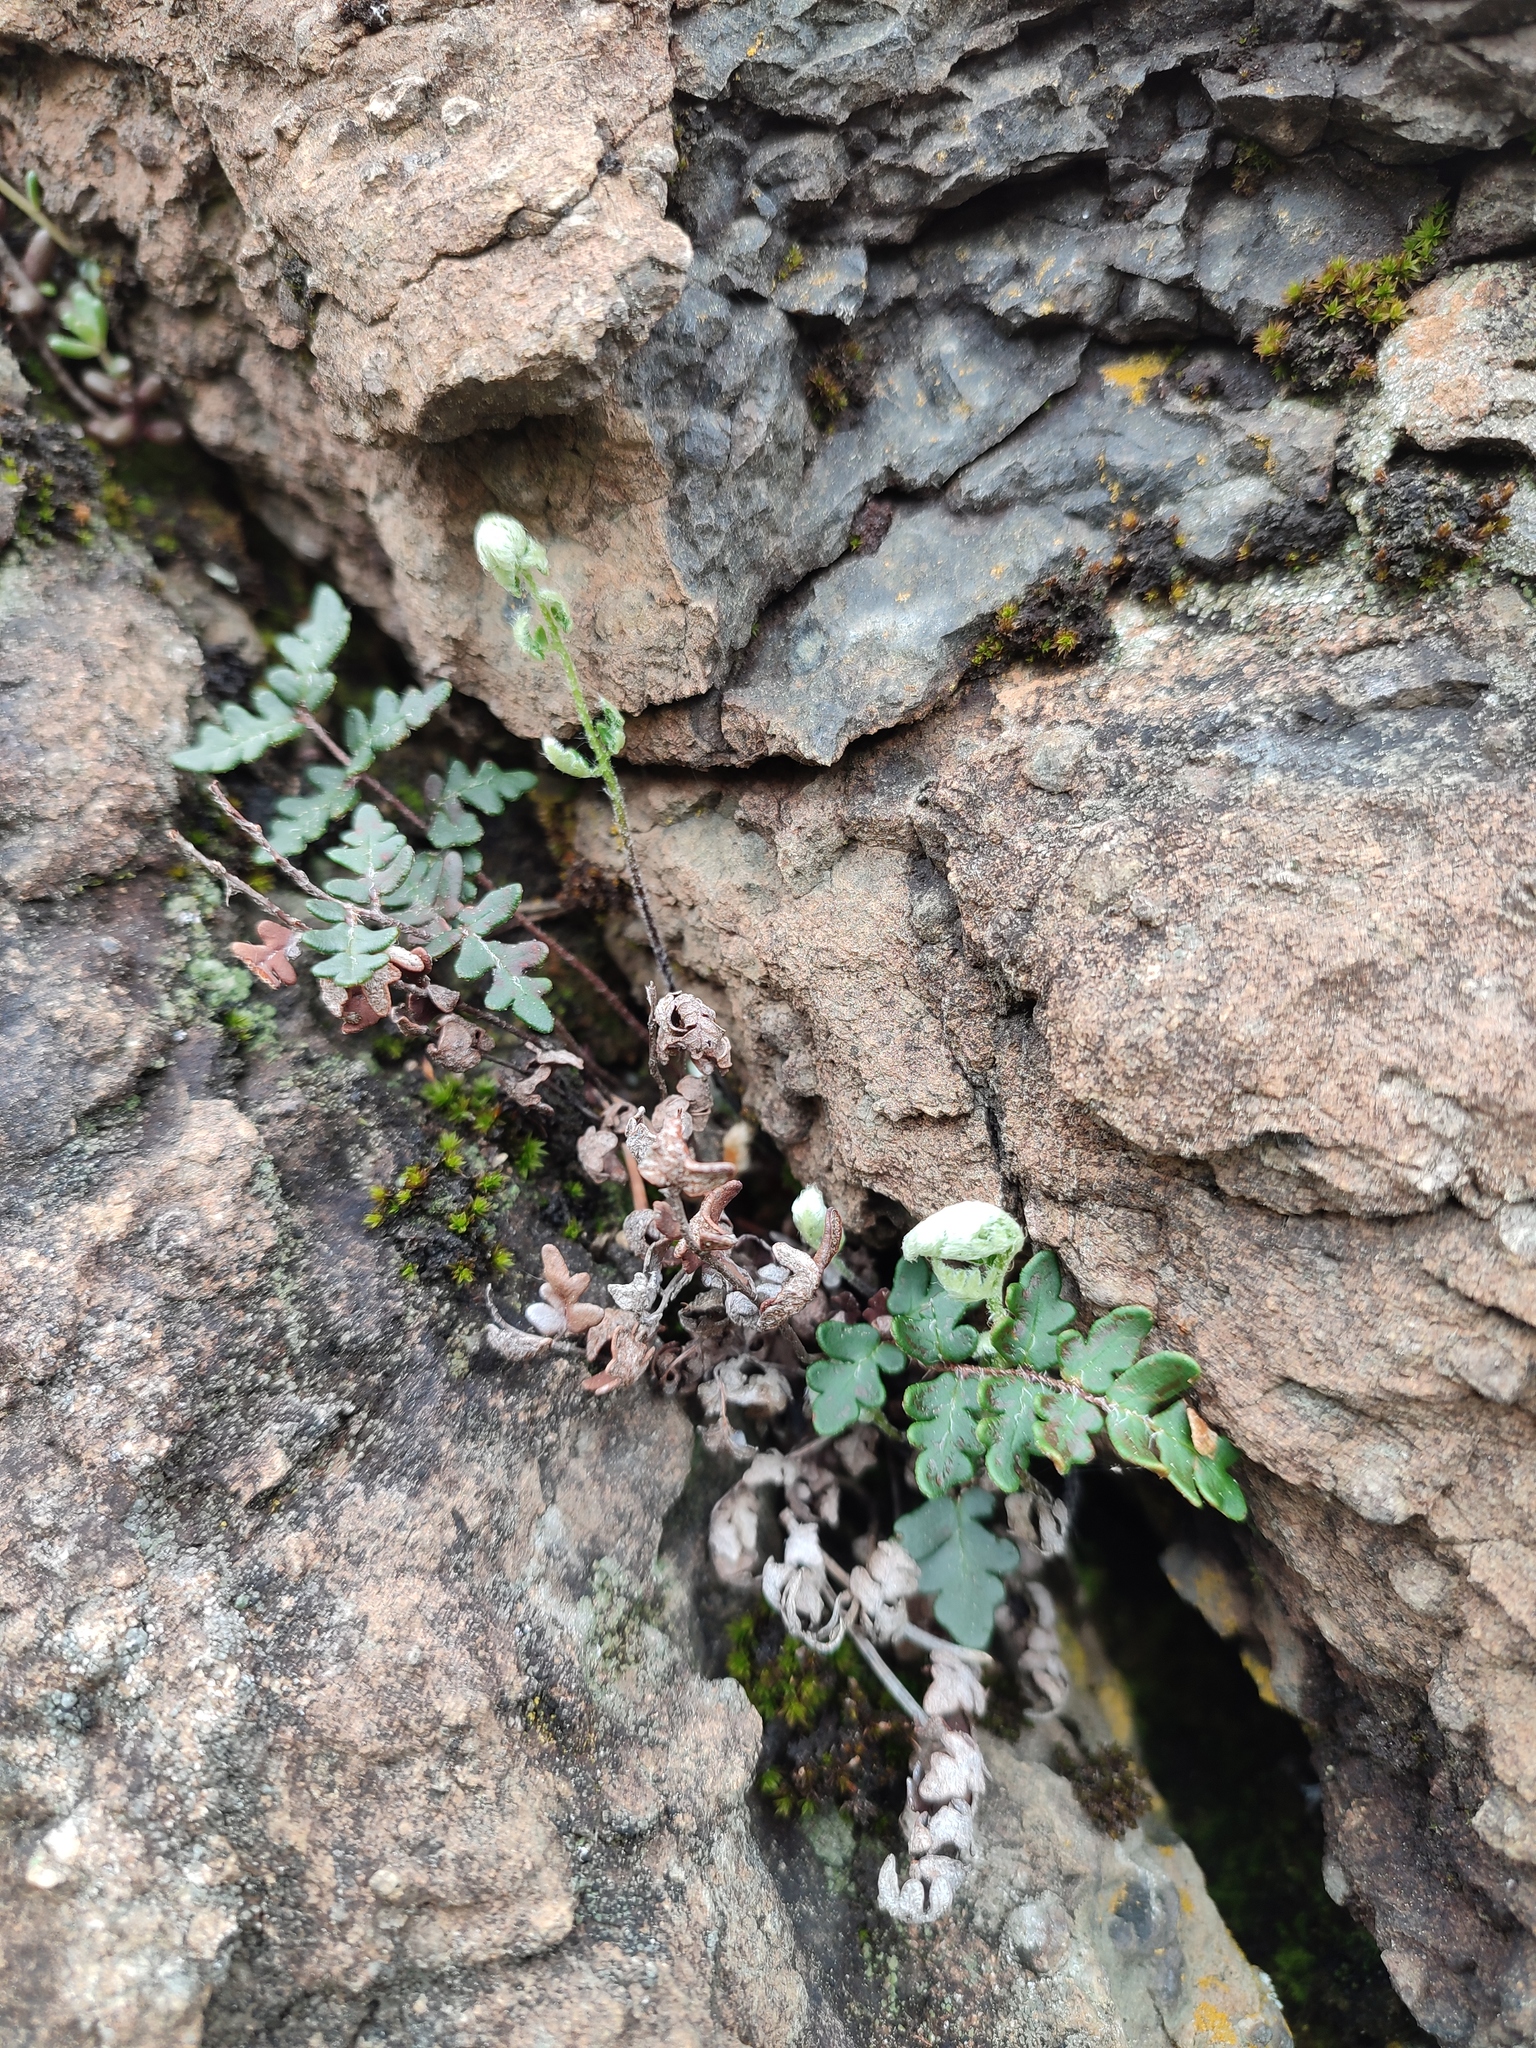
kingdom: Plantae
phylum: Tracheophyta
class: Polypodiopsida
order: Polypodiales
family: Pteridaceae
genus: Paragymnopteris
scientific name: Paragymnopteris marantae
